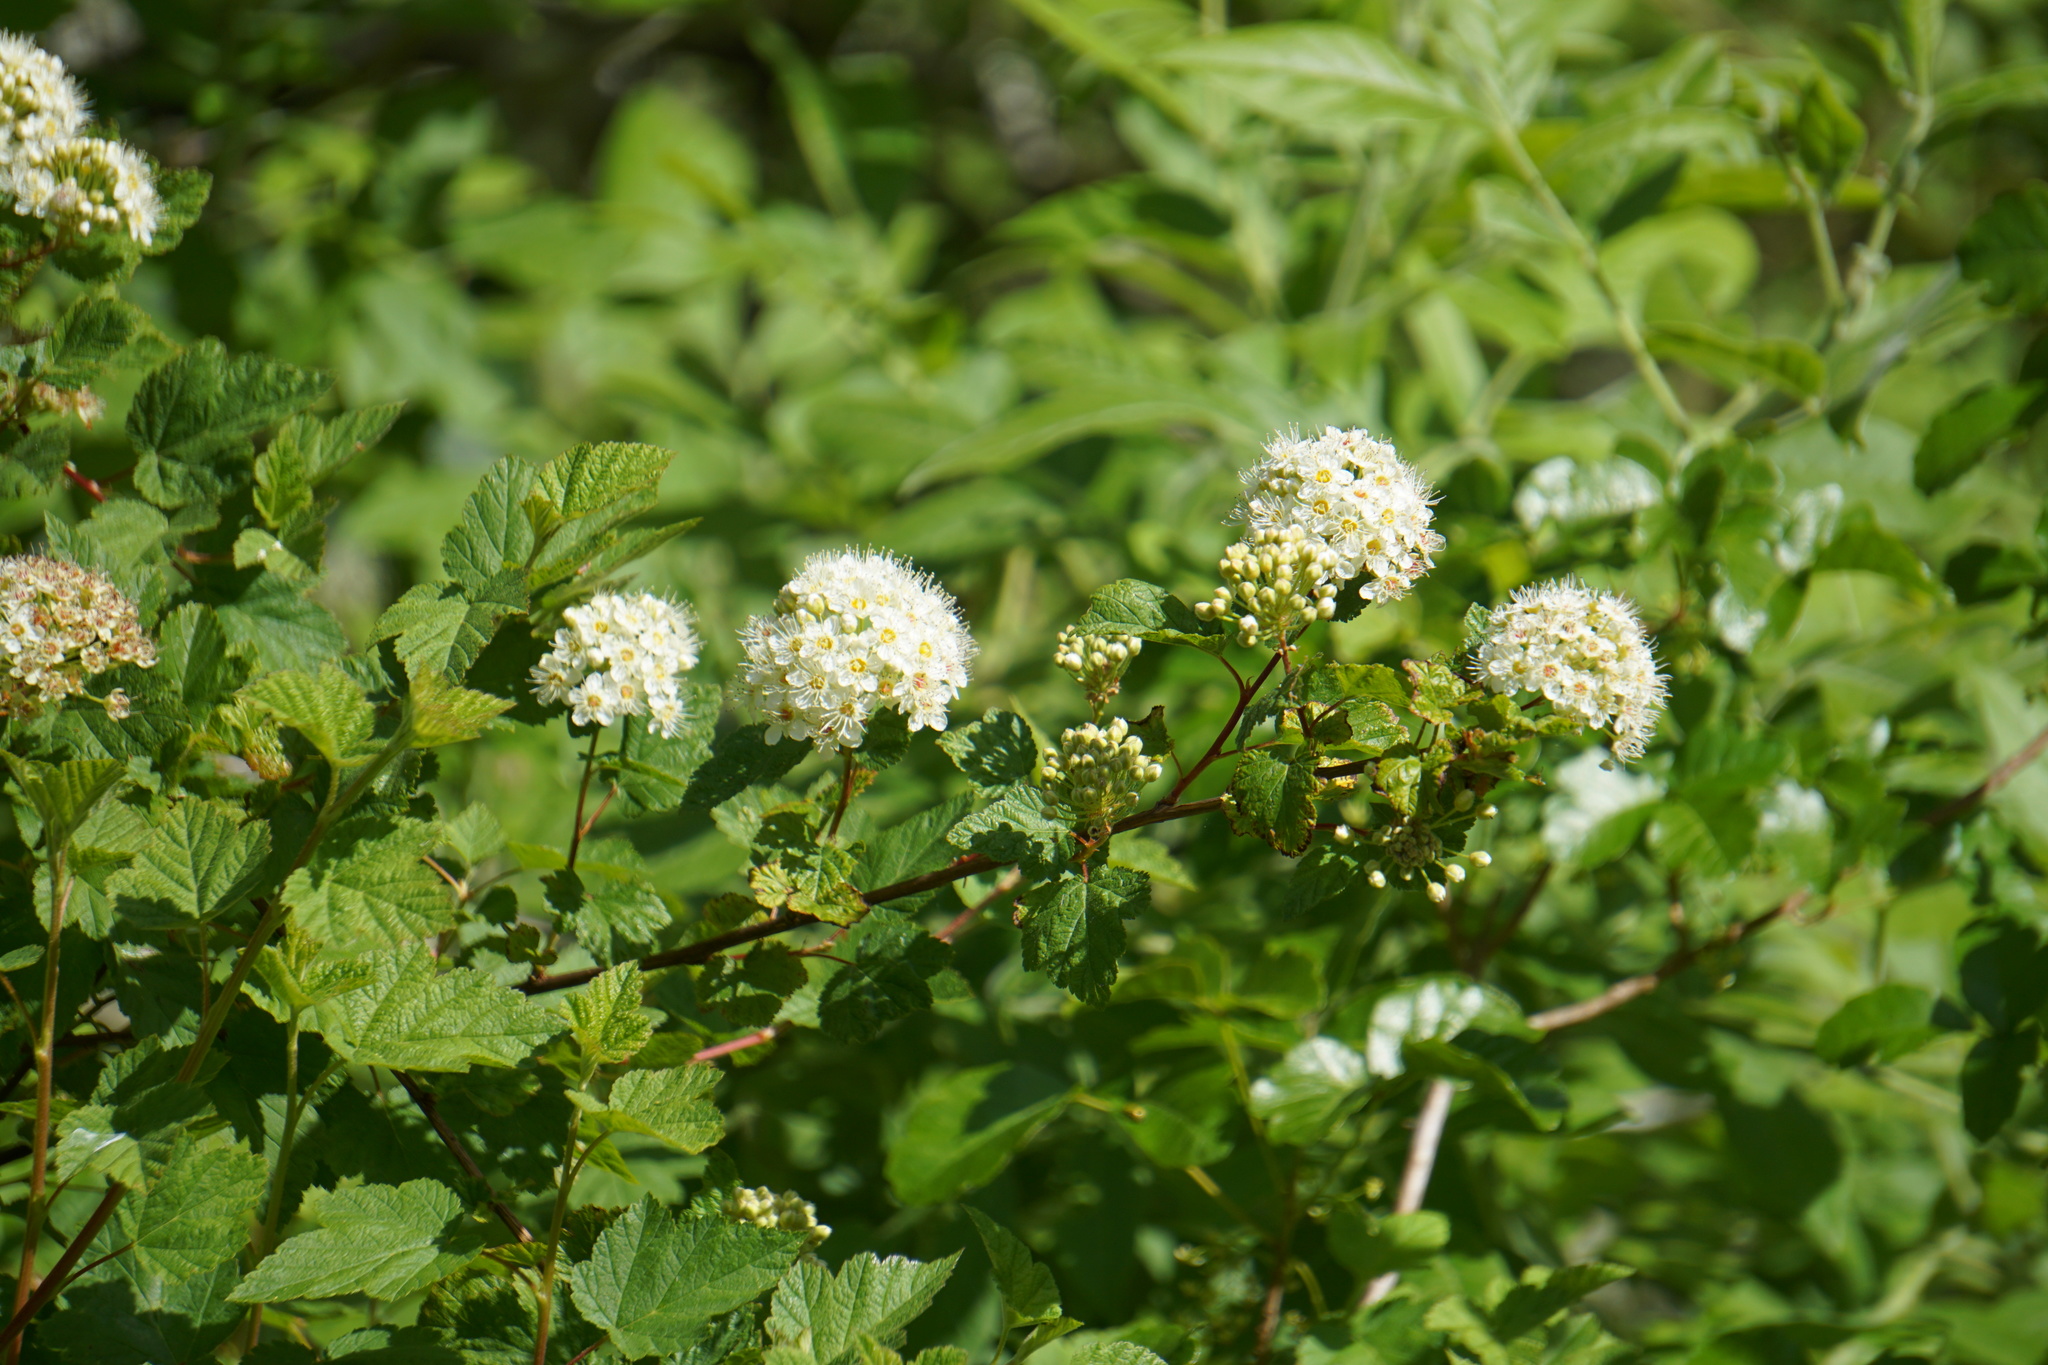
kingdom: Plantae
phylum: Tracheophyta
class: Magnoliopsida
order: Rosales
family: Rosaceae
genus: Physocarpus
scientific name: Physocarpus capitatus
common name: Pacific ninebark
